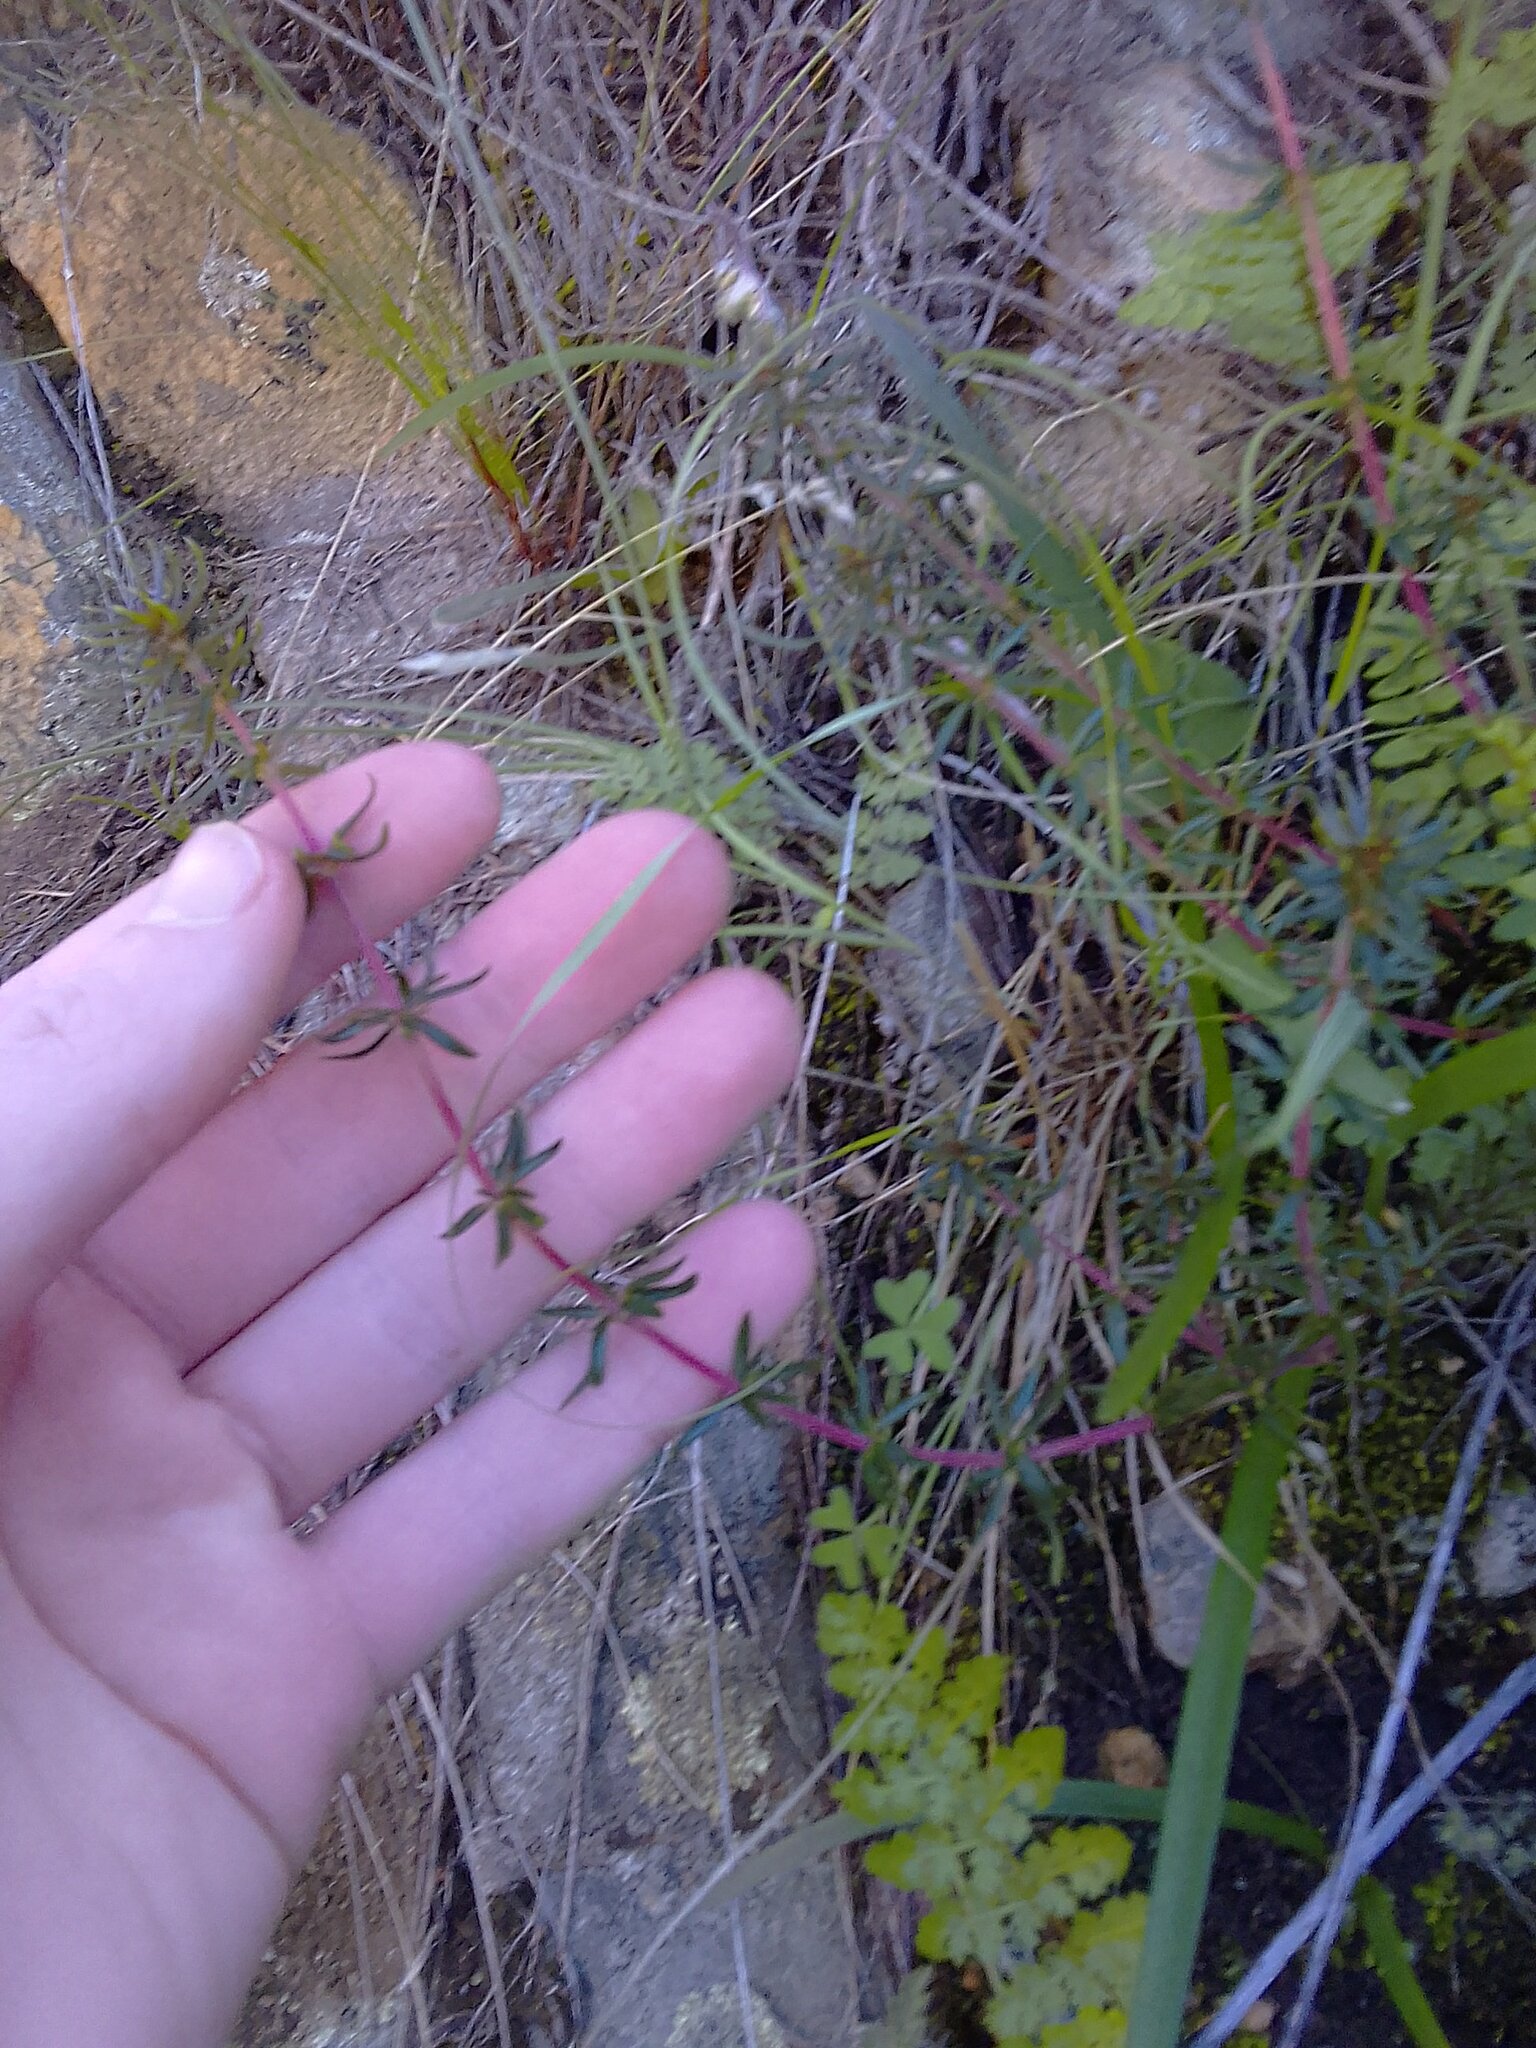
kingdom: Plantae
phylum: Tracheophyta
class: Magnoliopsida
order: Gentianales
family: Rubiaceae
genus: Anthospermum
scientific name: Anthospermum galioides
